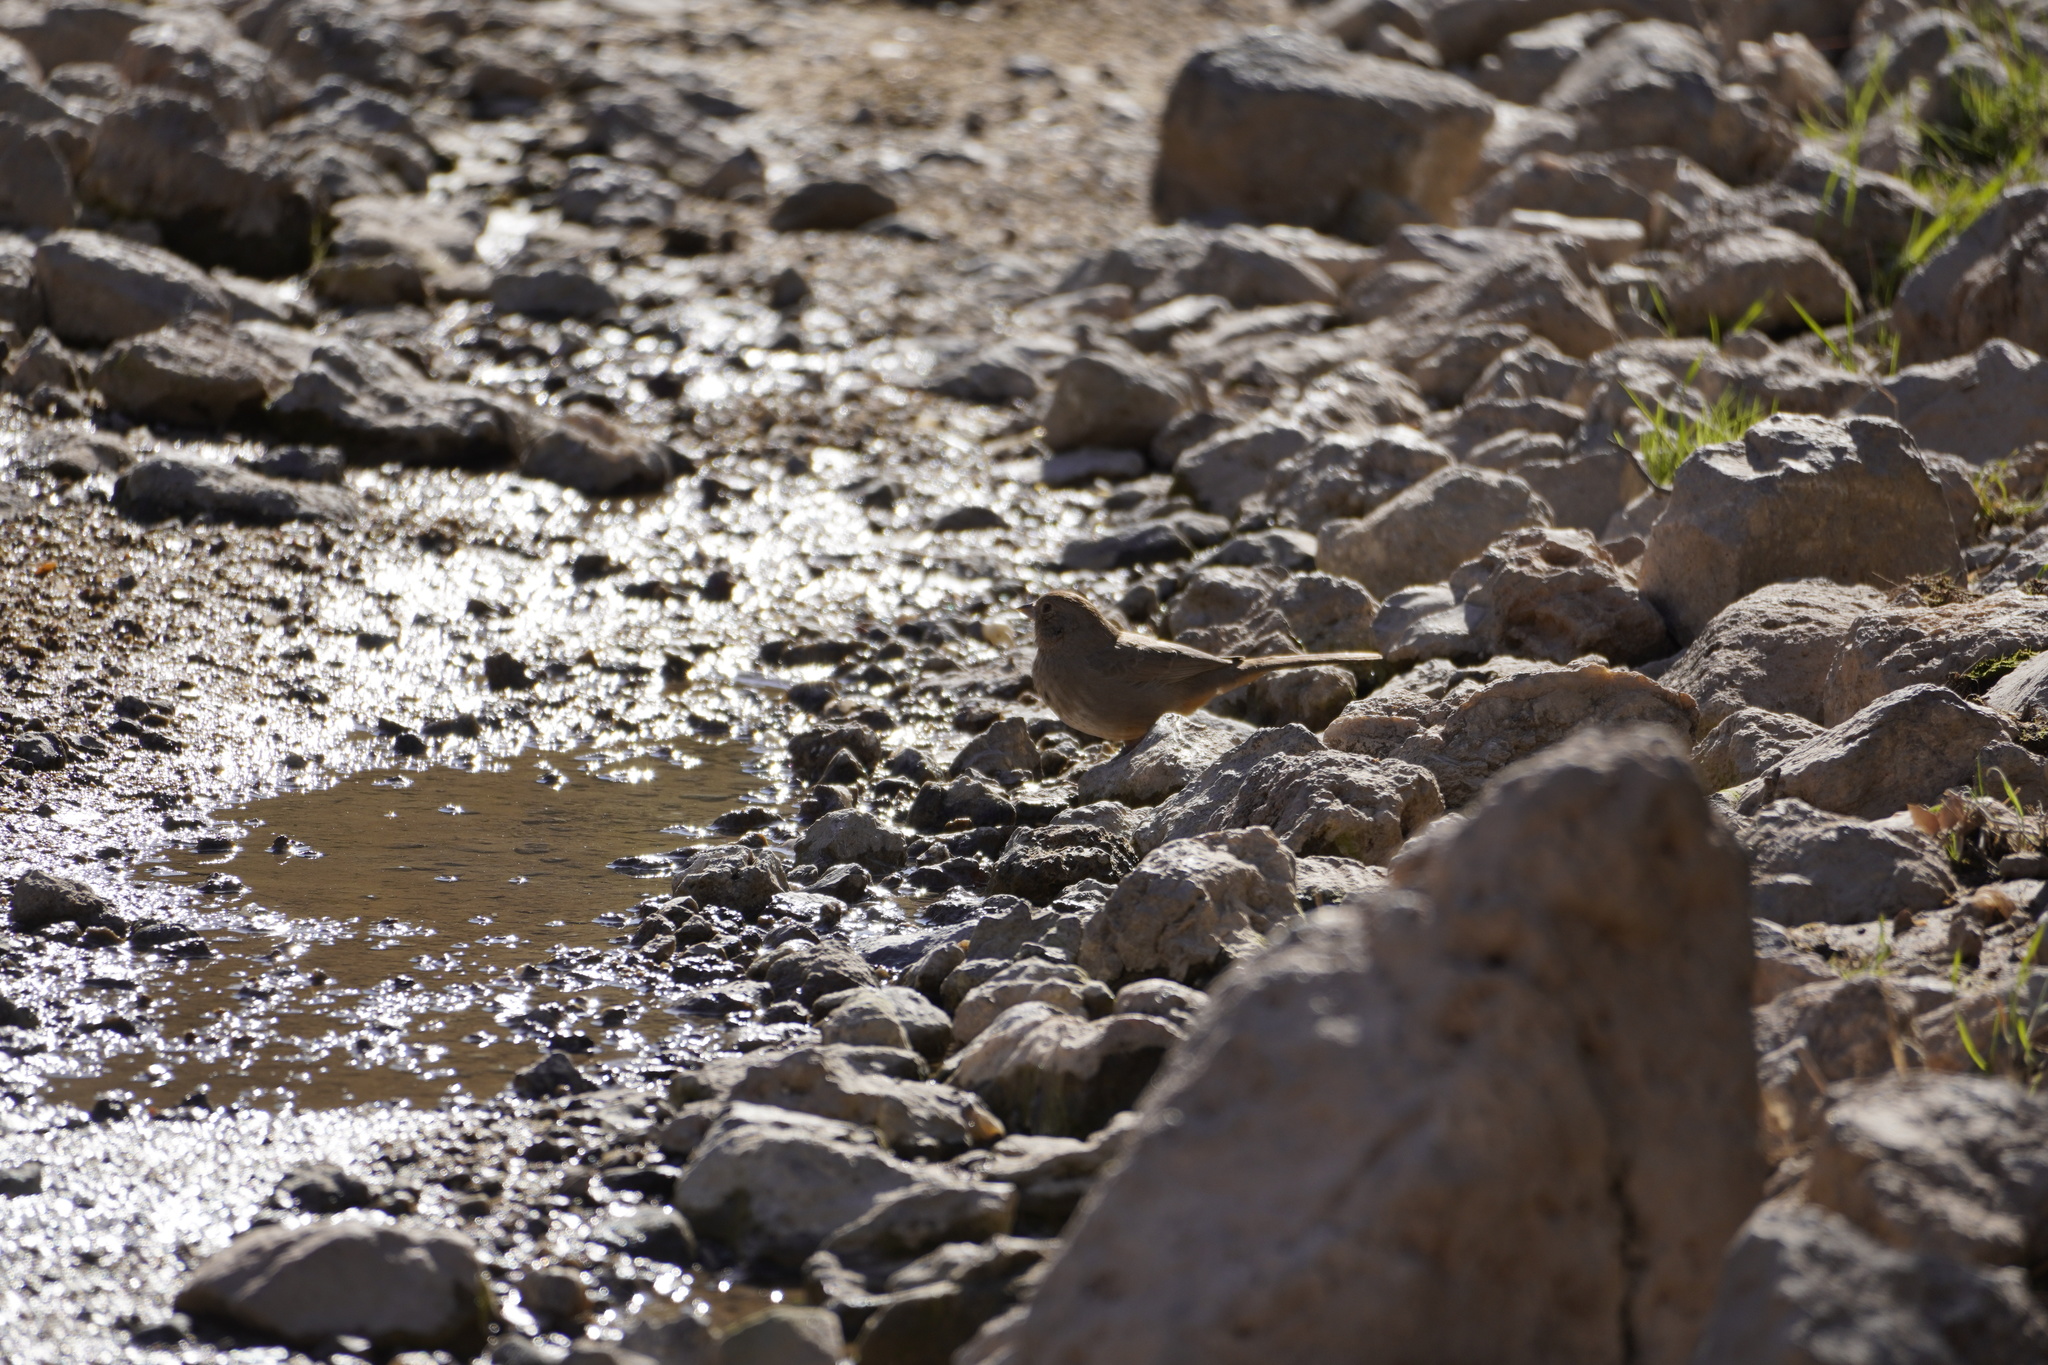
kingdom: Animalia
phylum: Chordata
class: Aves
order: Passeriformes
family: Passerellidae
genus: Melozone
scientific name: Melozone fusca
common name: Canyon towhee
